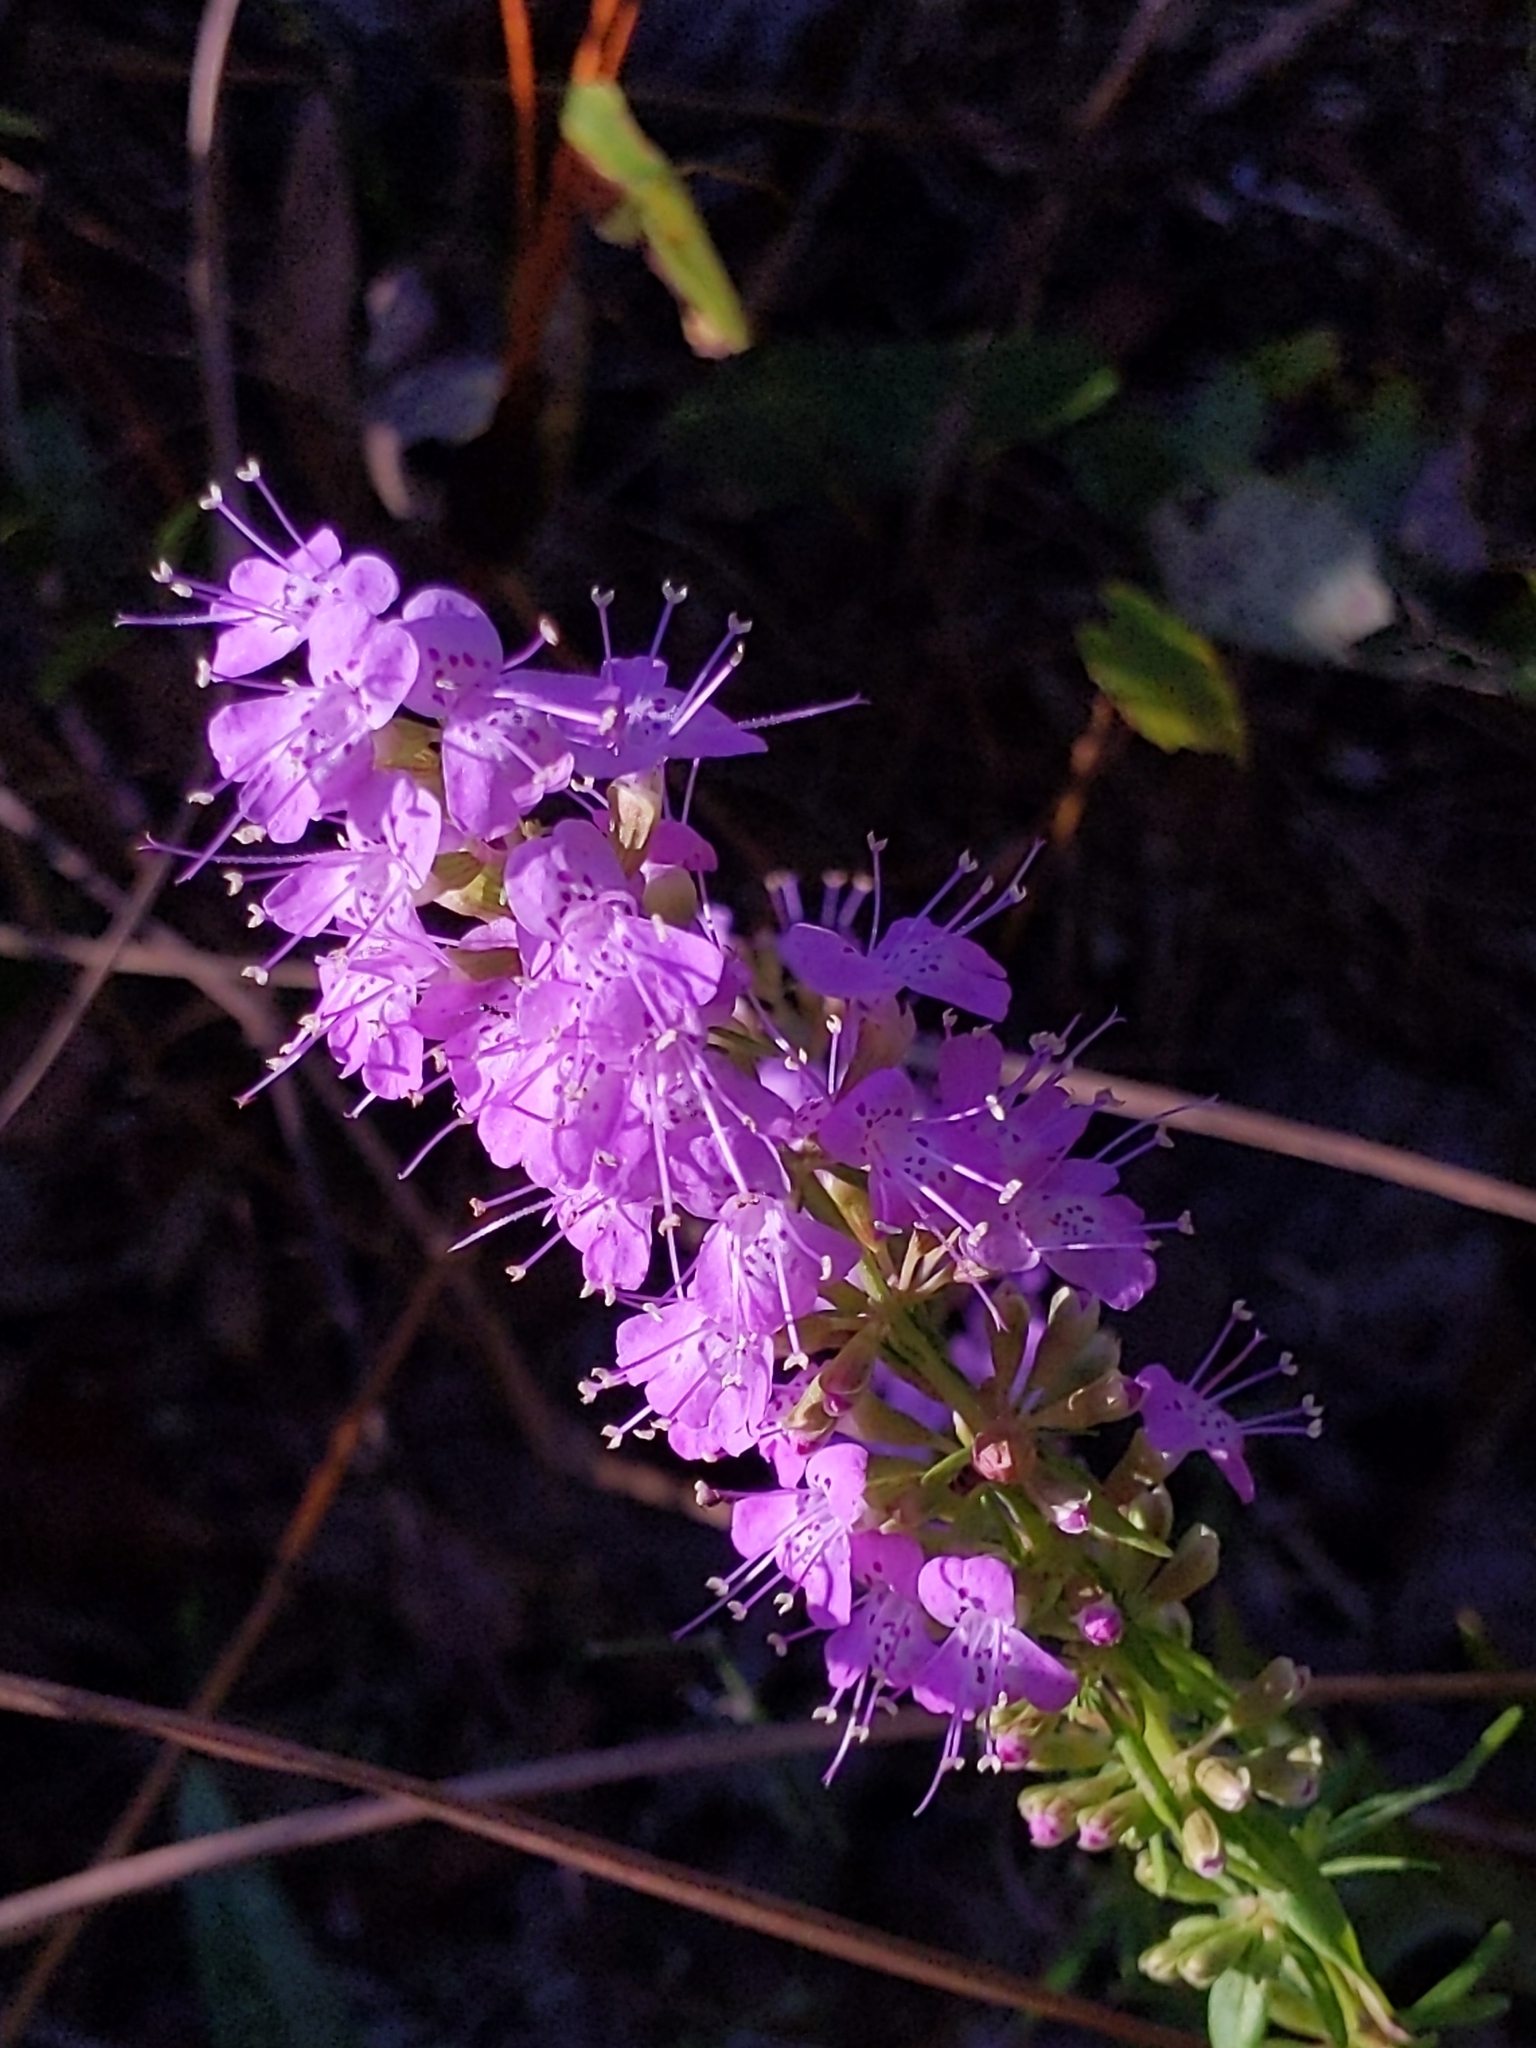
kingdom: Plantae
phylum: Tracheophyta
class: Magnoliopsida
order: Lamiales
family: Lamiaceae
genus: Dicerandra
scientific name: Dicerandra densiflora
